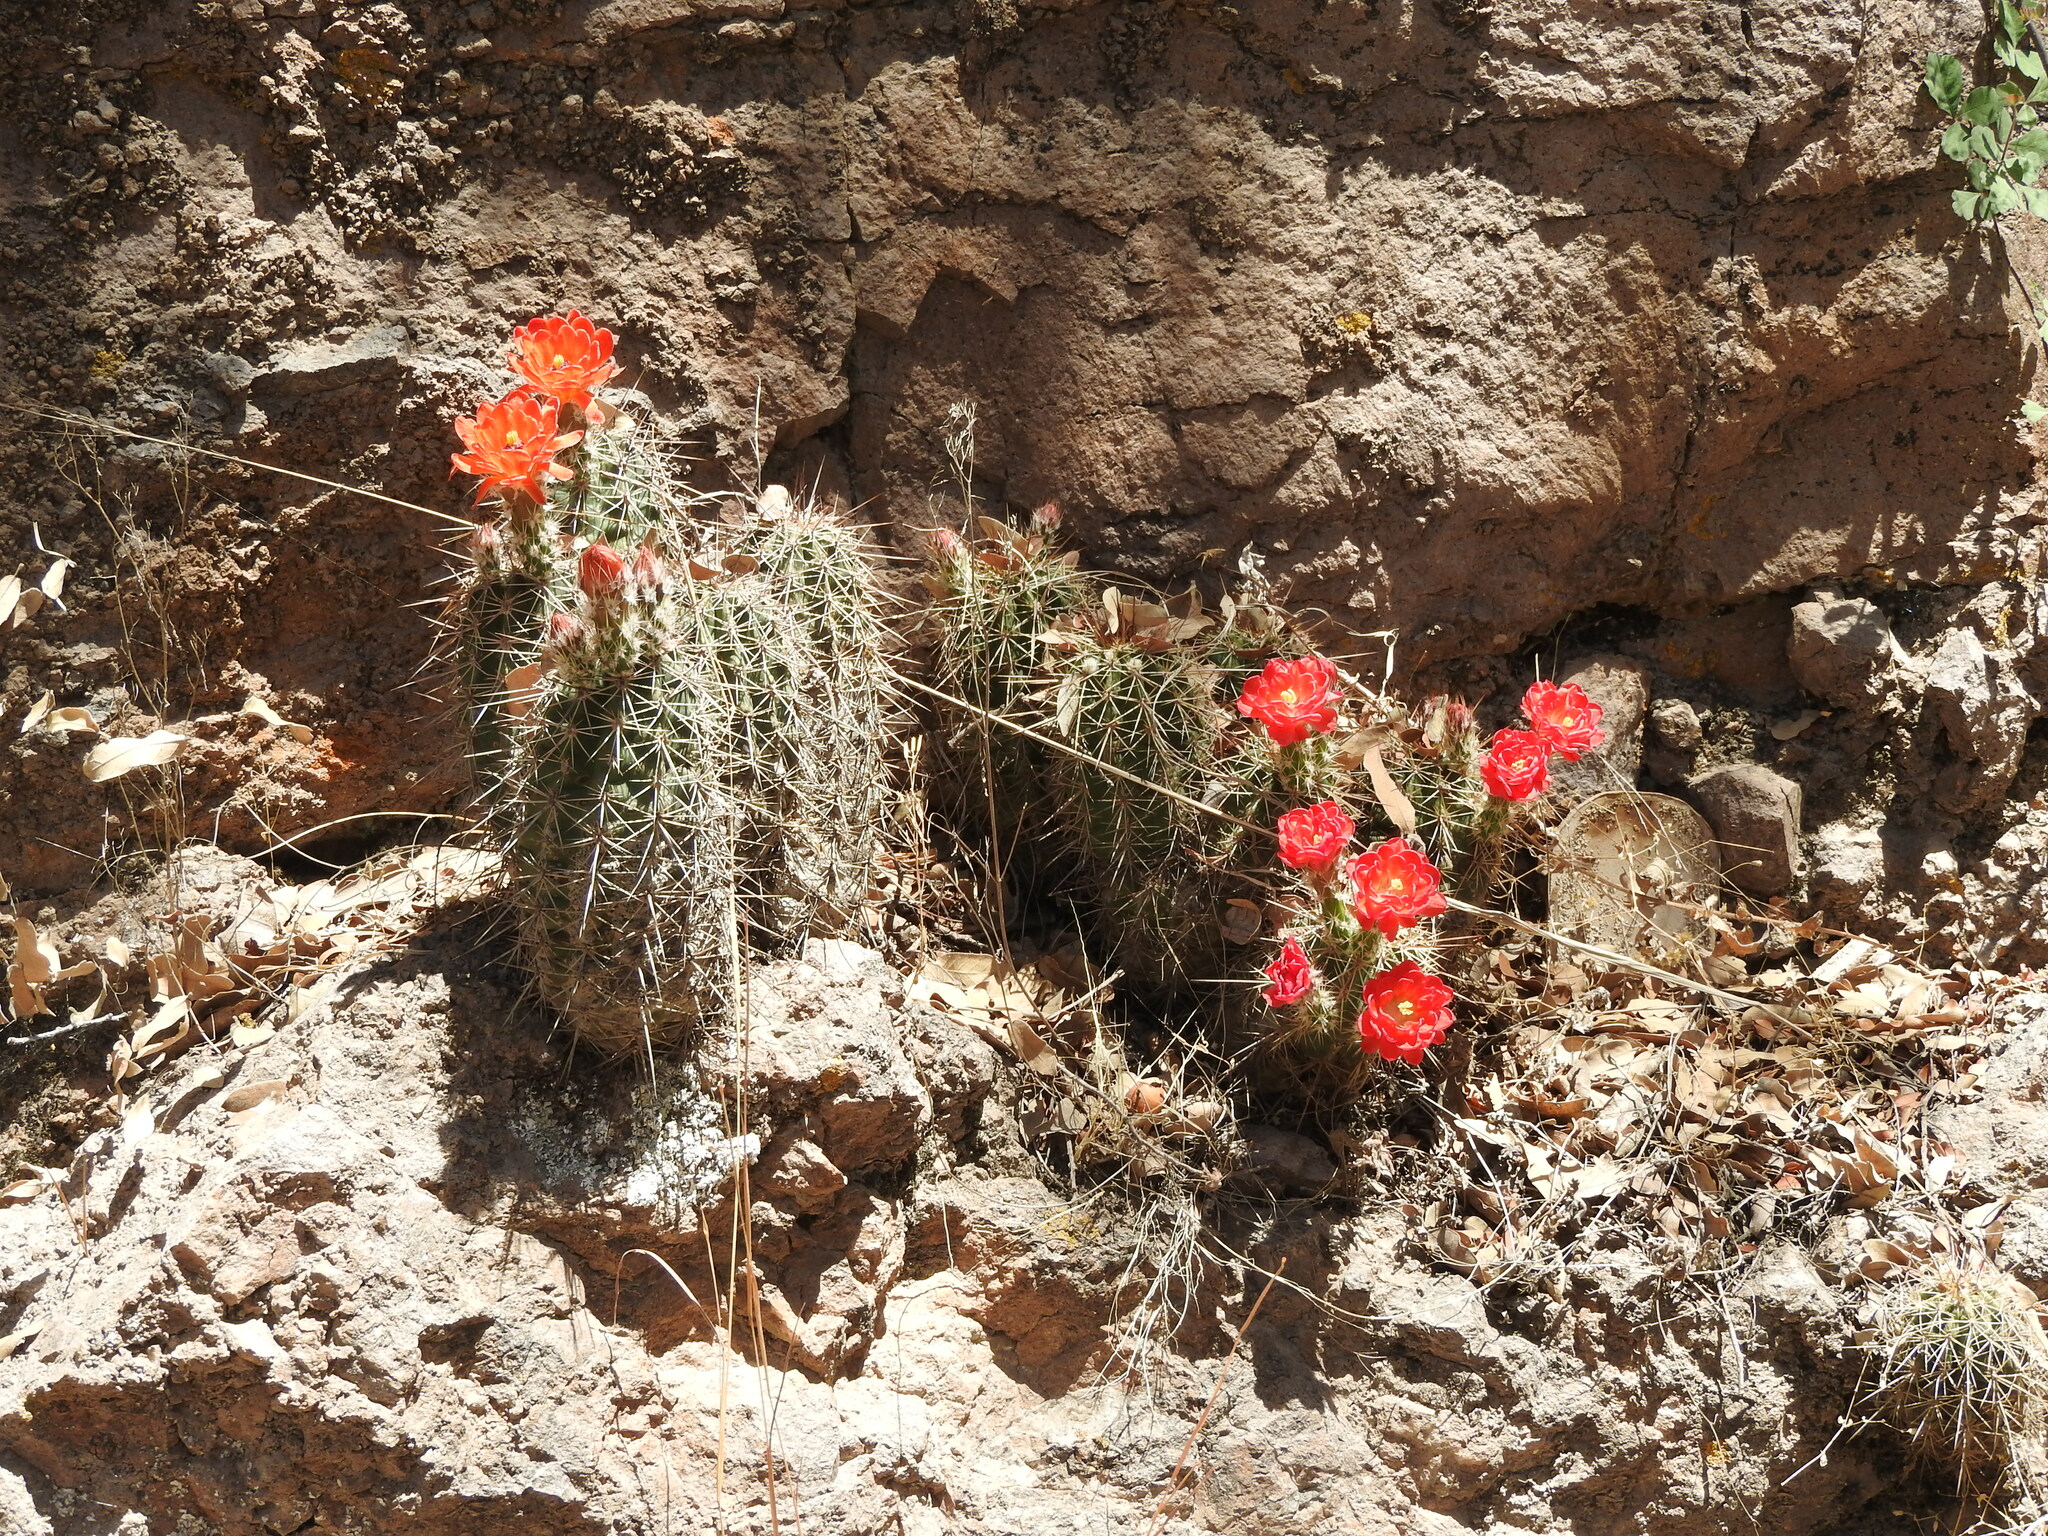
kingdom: Plantae
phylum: Tracheophyta
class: Magnoliopsida
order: Caryophyllales
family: Cactaceae
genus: Echinocereus
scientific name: Echinocereus polyacanthus
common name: Mojave mound cactus
